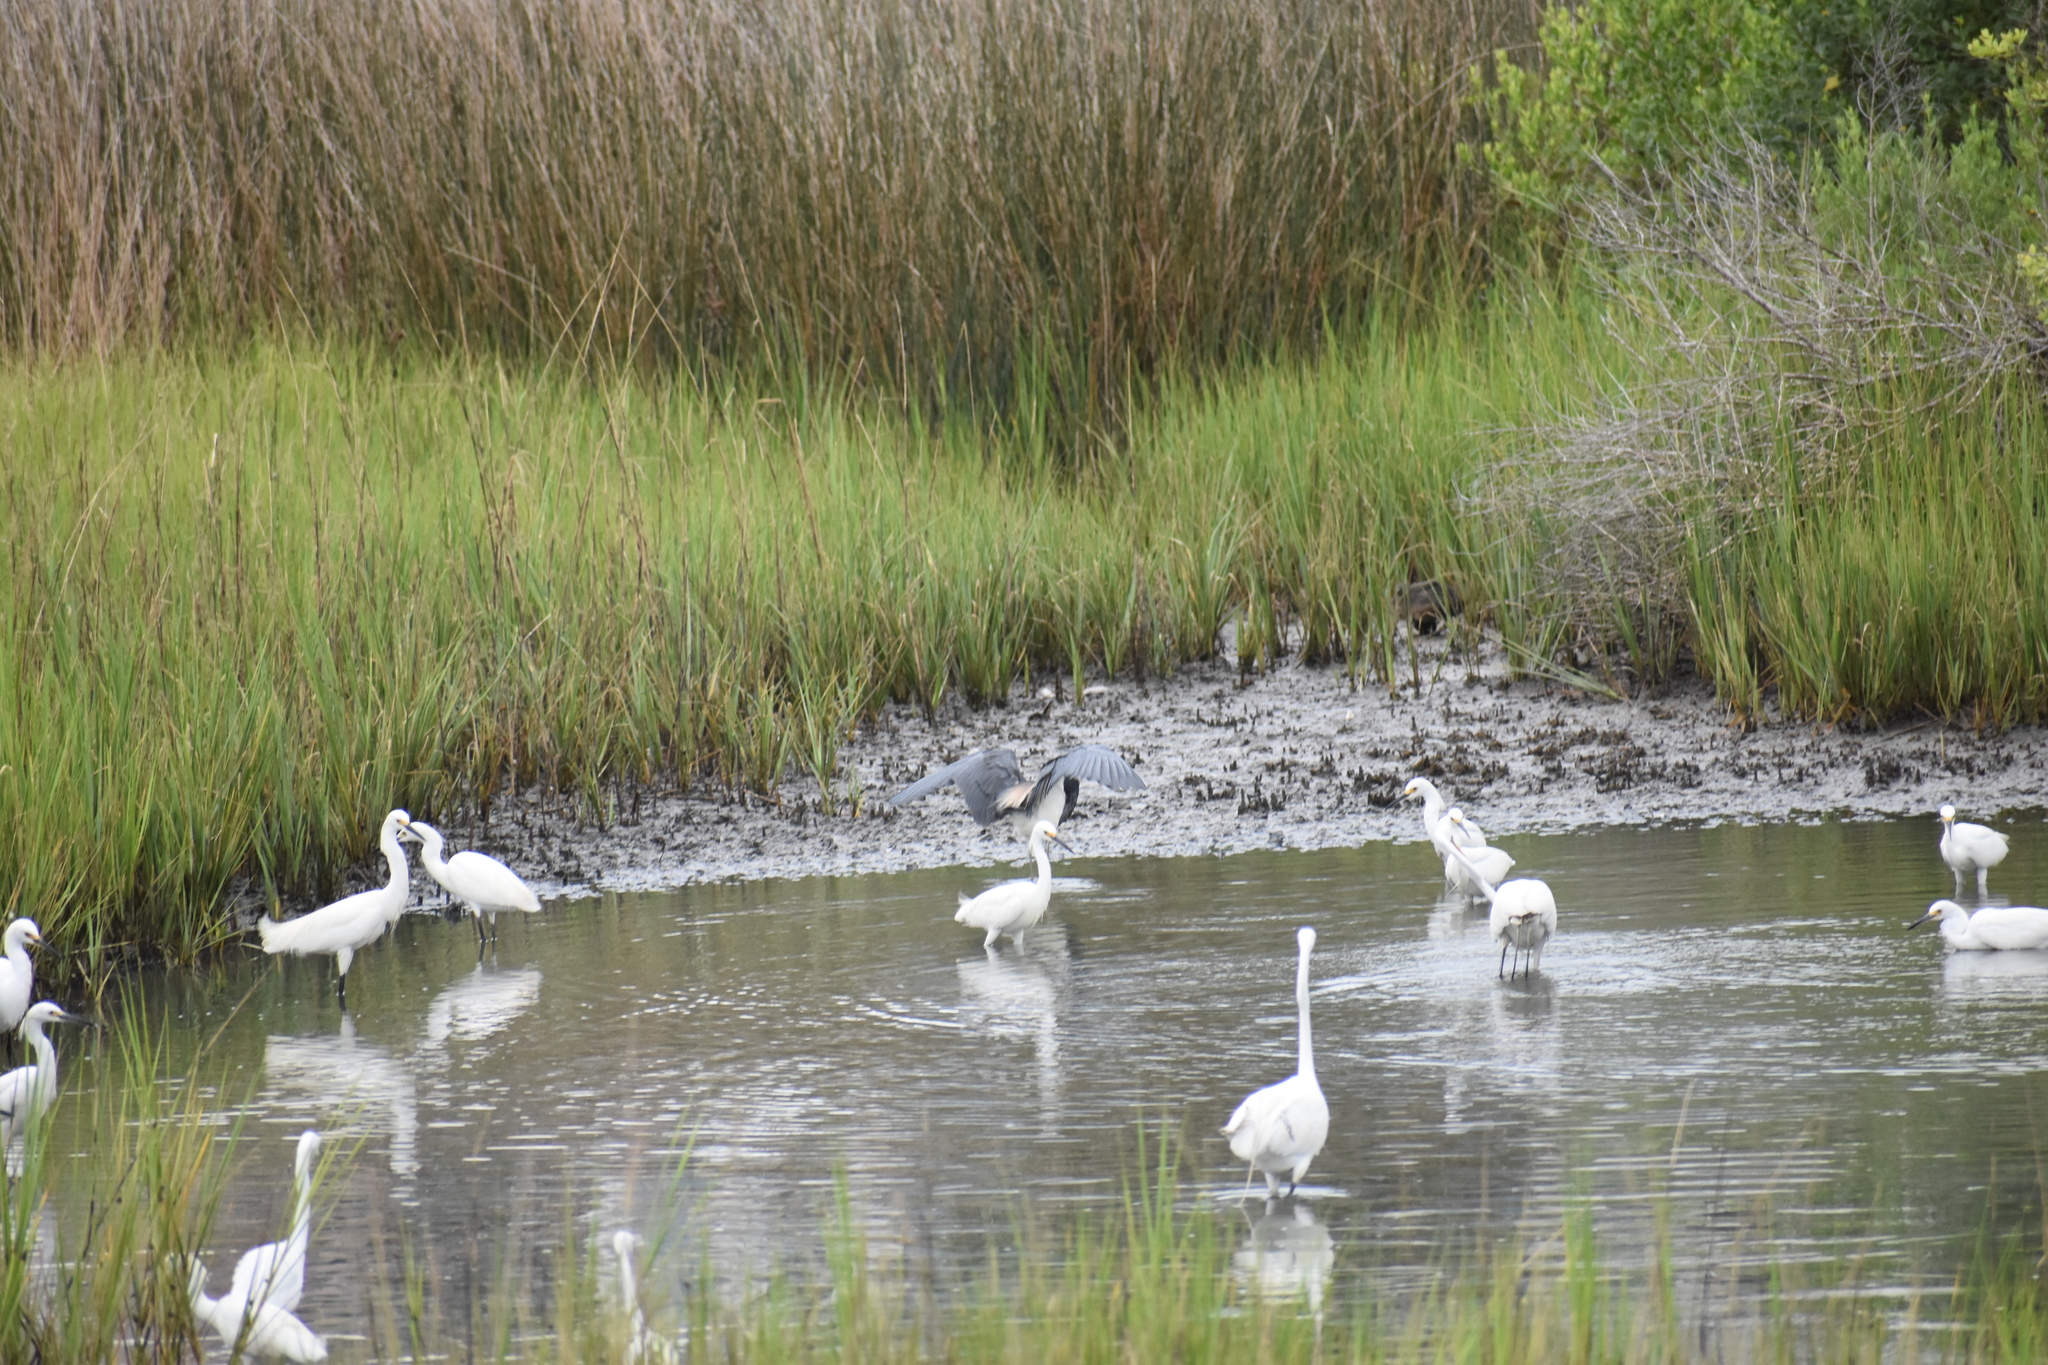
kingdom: Animalia
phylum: Chordata
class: Aves
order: Pelecaniformes
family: Ardeidae
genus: Egretta
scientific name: Egretta tricolor
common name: Tricolored heron
